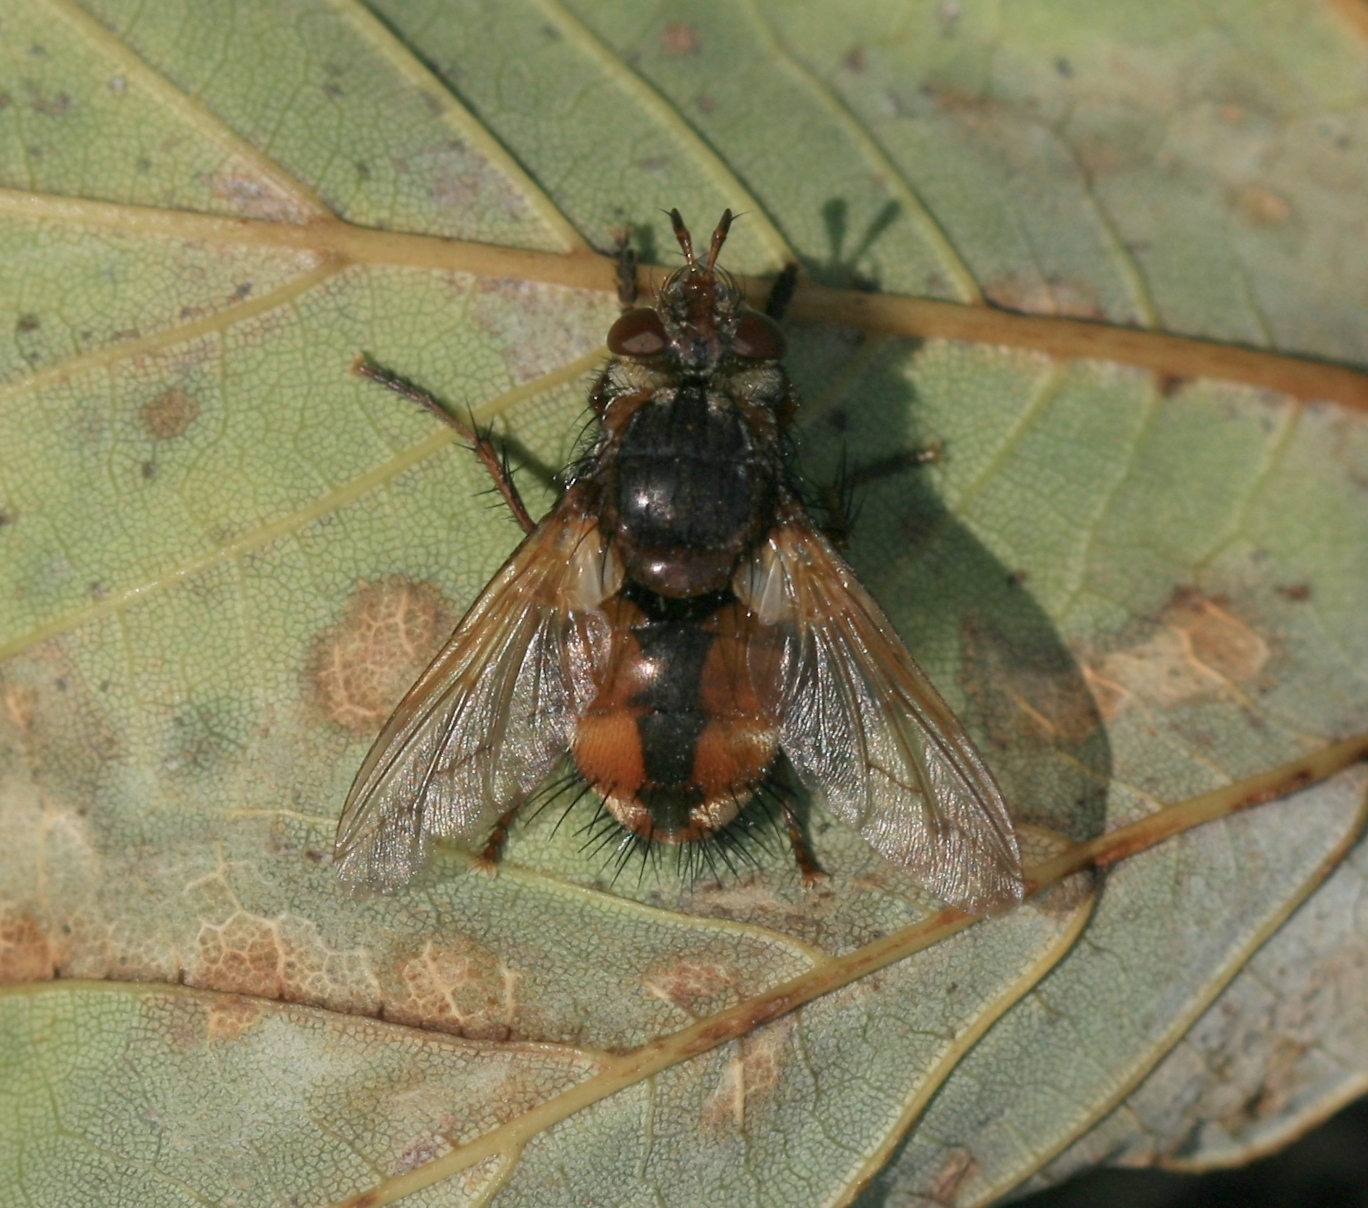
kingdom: Animalia
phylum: Arthropoda
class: Insecta
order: Diptera
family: Tachinidae
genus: Tachina
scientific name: Tachina fera
